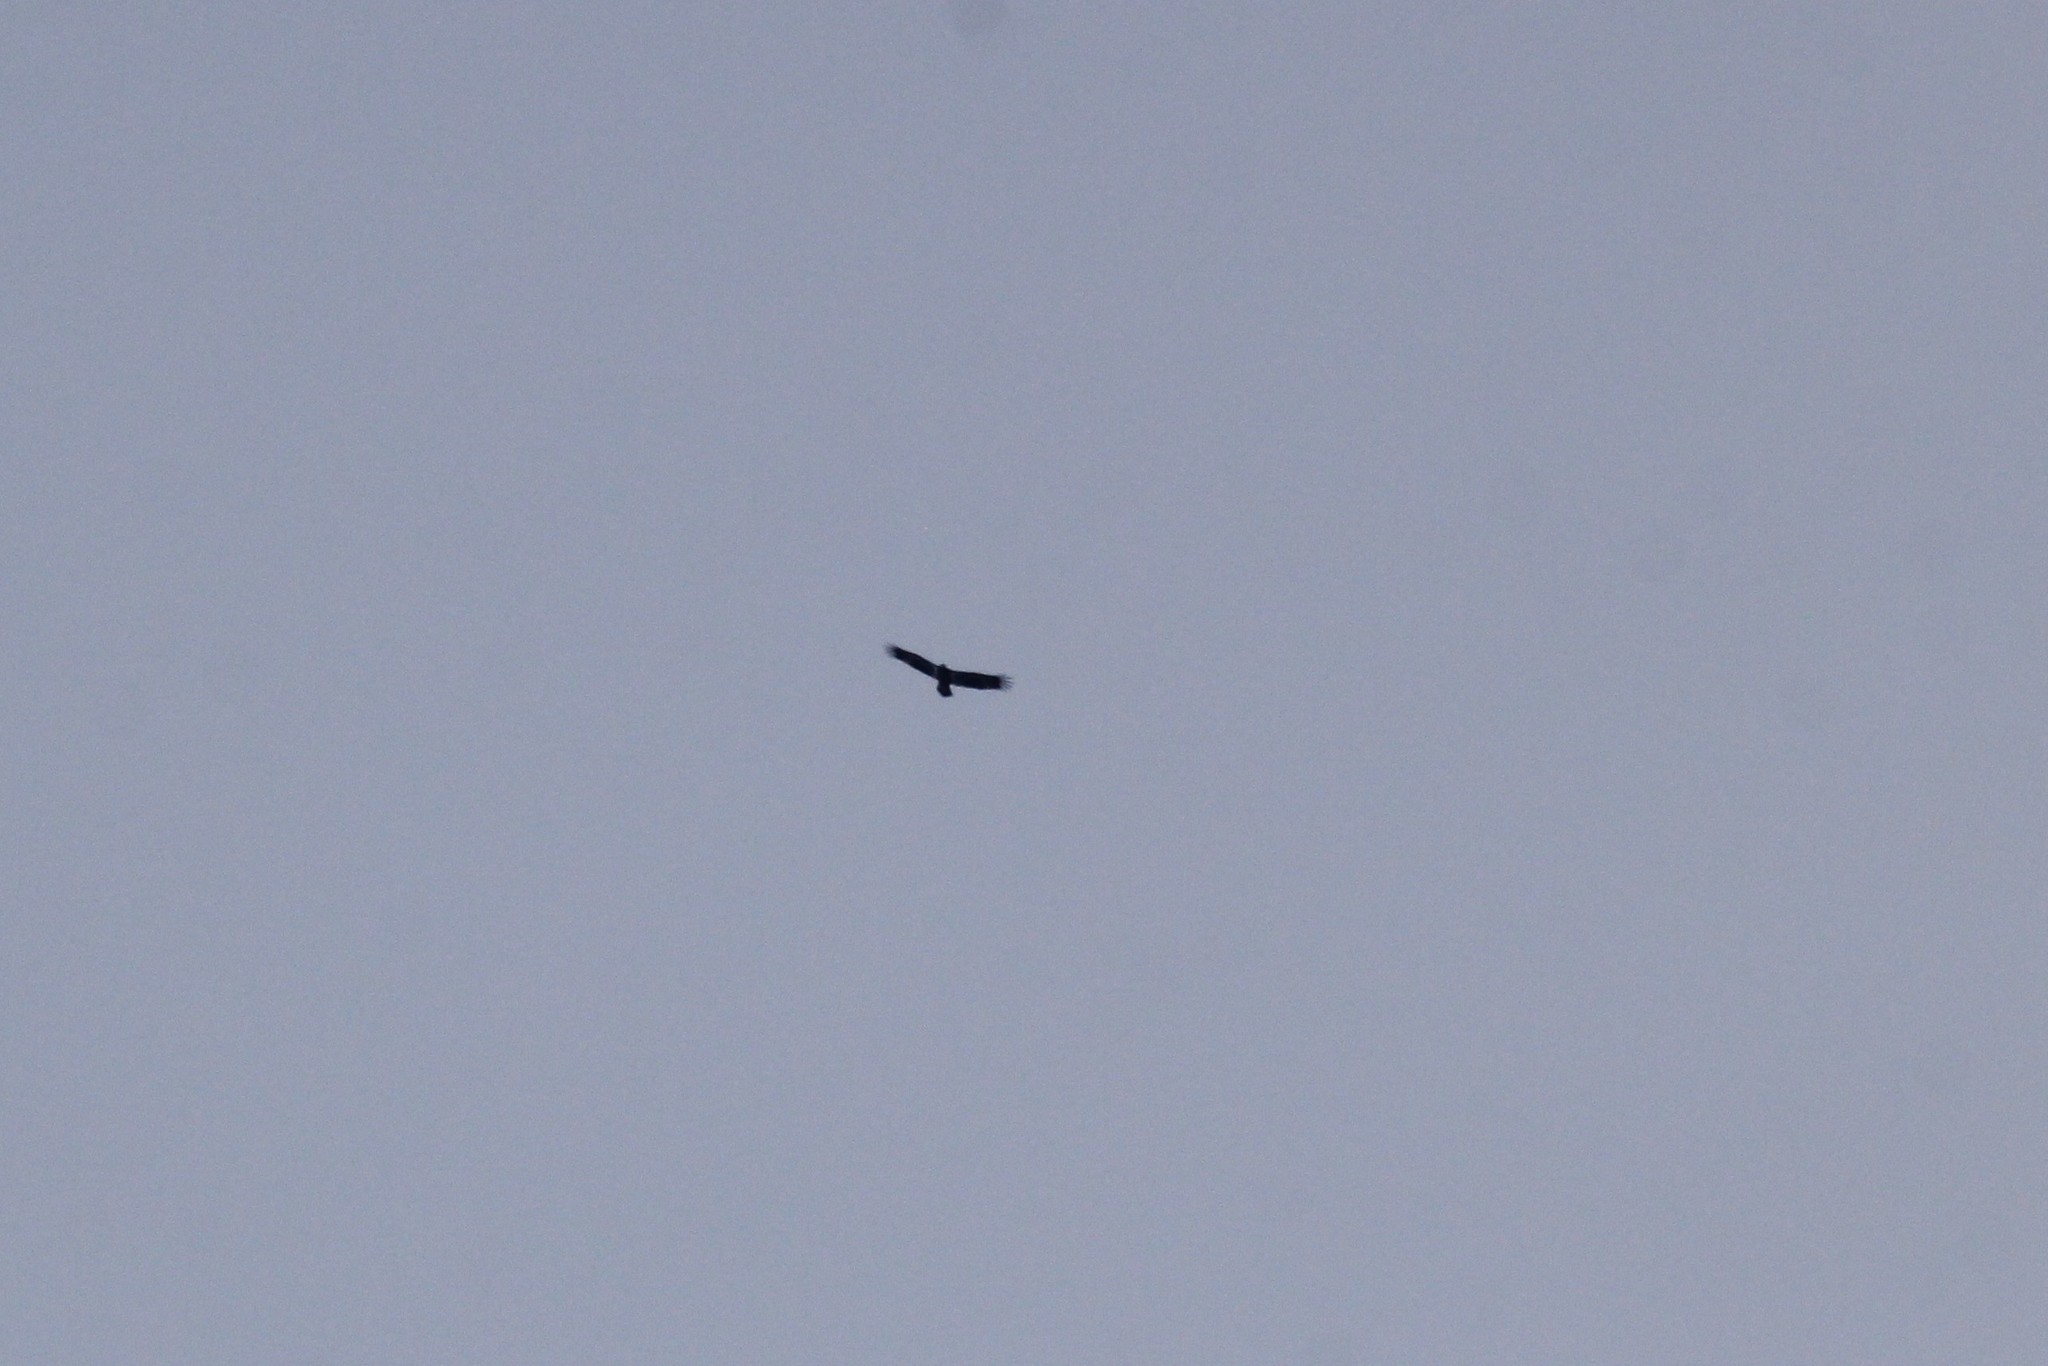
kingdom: Animalia
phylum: Chordata
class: Aves
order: Accipitriformes
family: Accipitridae
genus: Haliaeetus
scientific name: Haliaeetus leucocephalus
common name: Bald eagle
